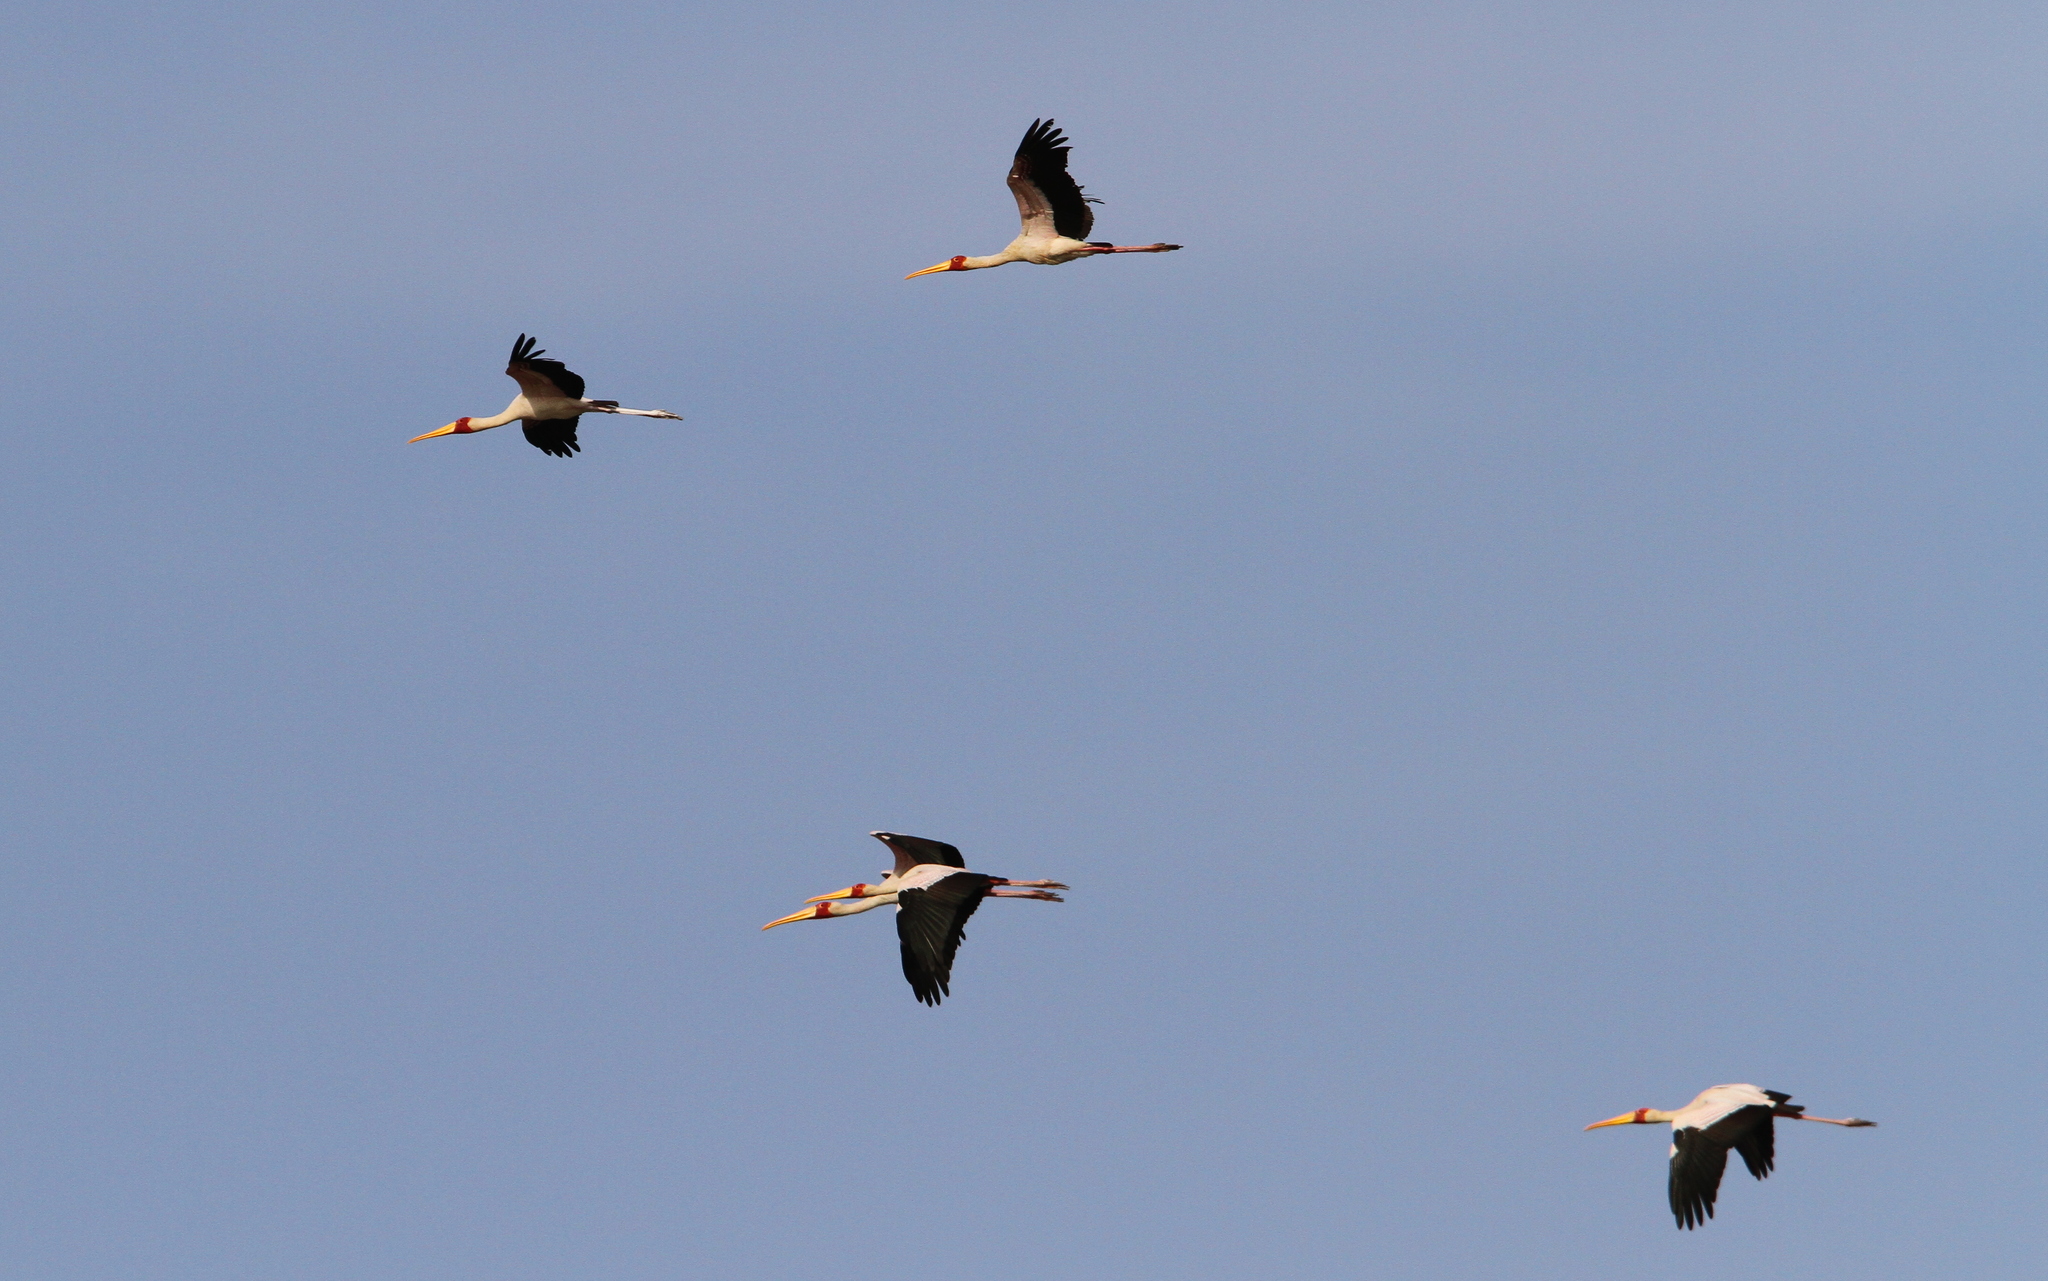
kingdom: Animalia
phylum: Chordata
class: Aves
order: Ciconiiformes
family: Ciconiidae
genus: Mycteria
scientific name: Mycteria ibis
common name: Yellow-billed stork
